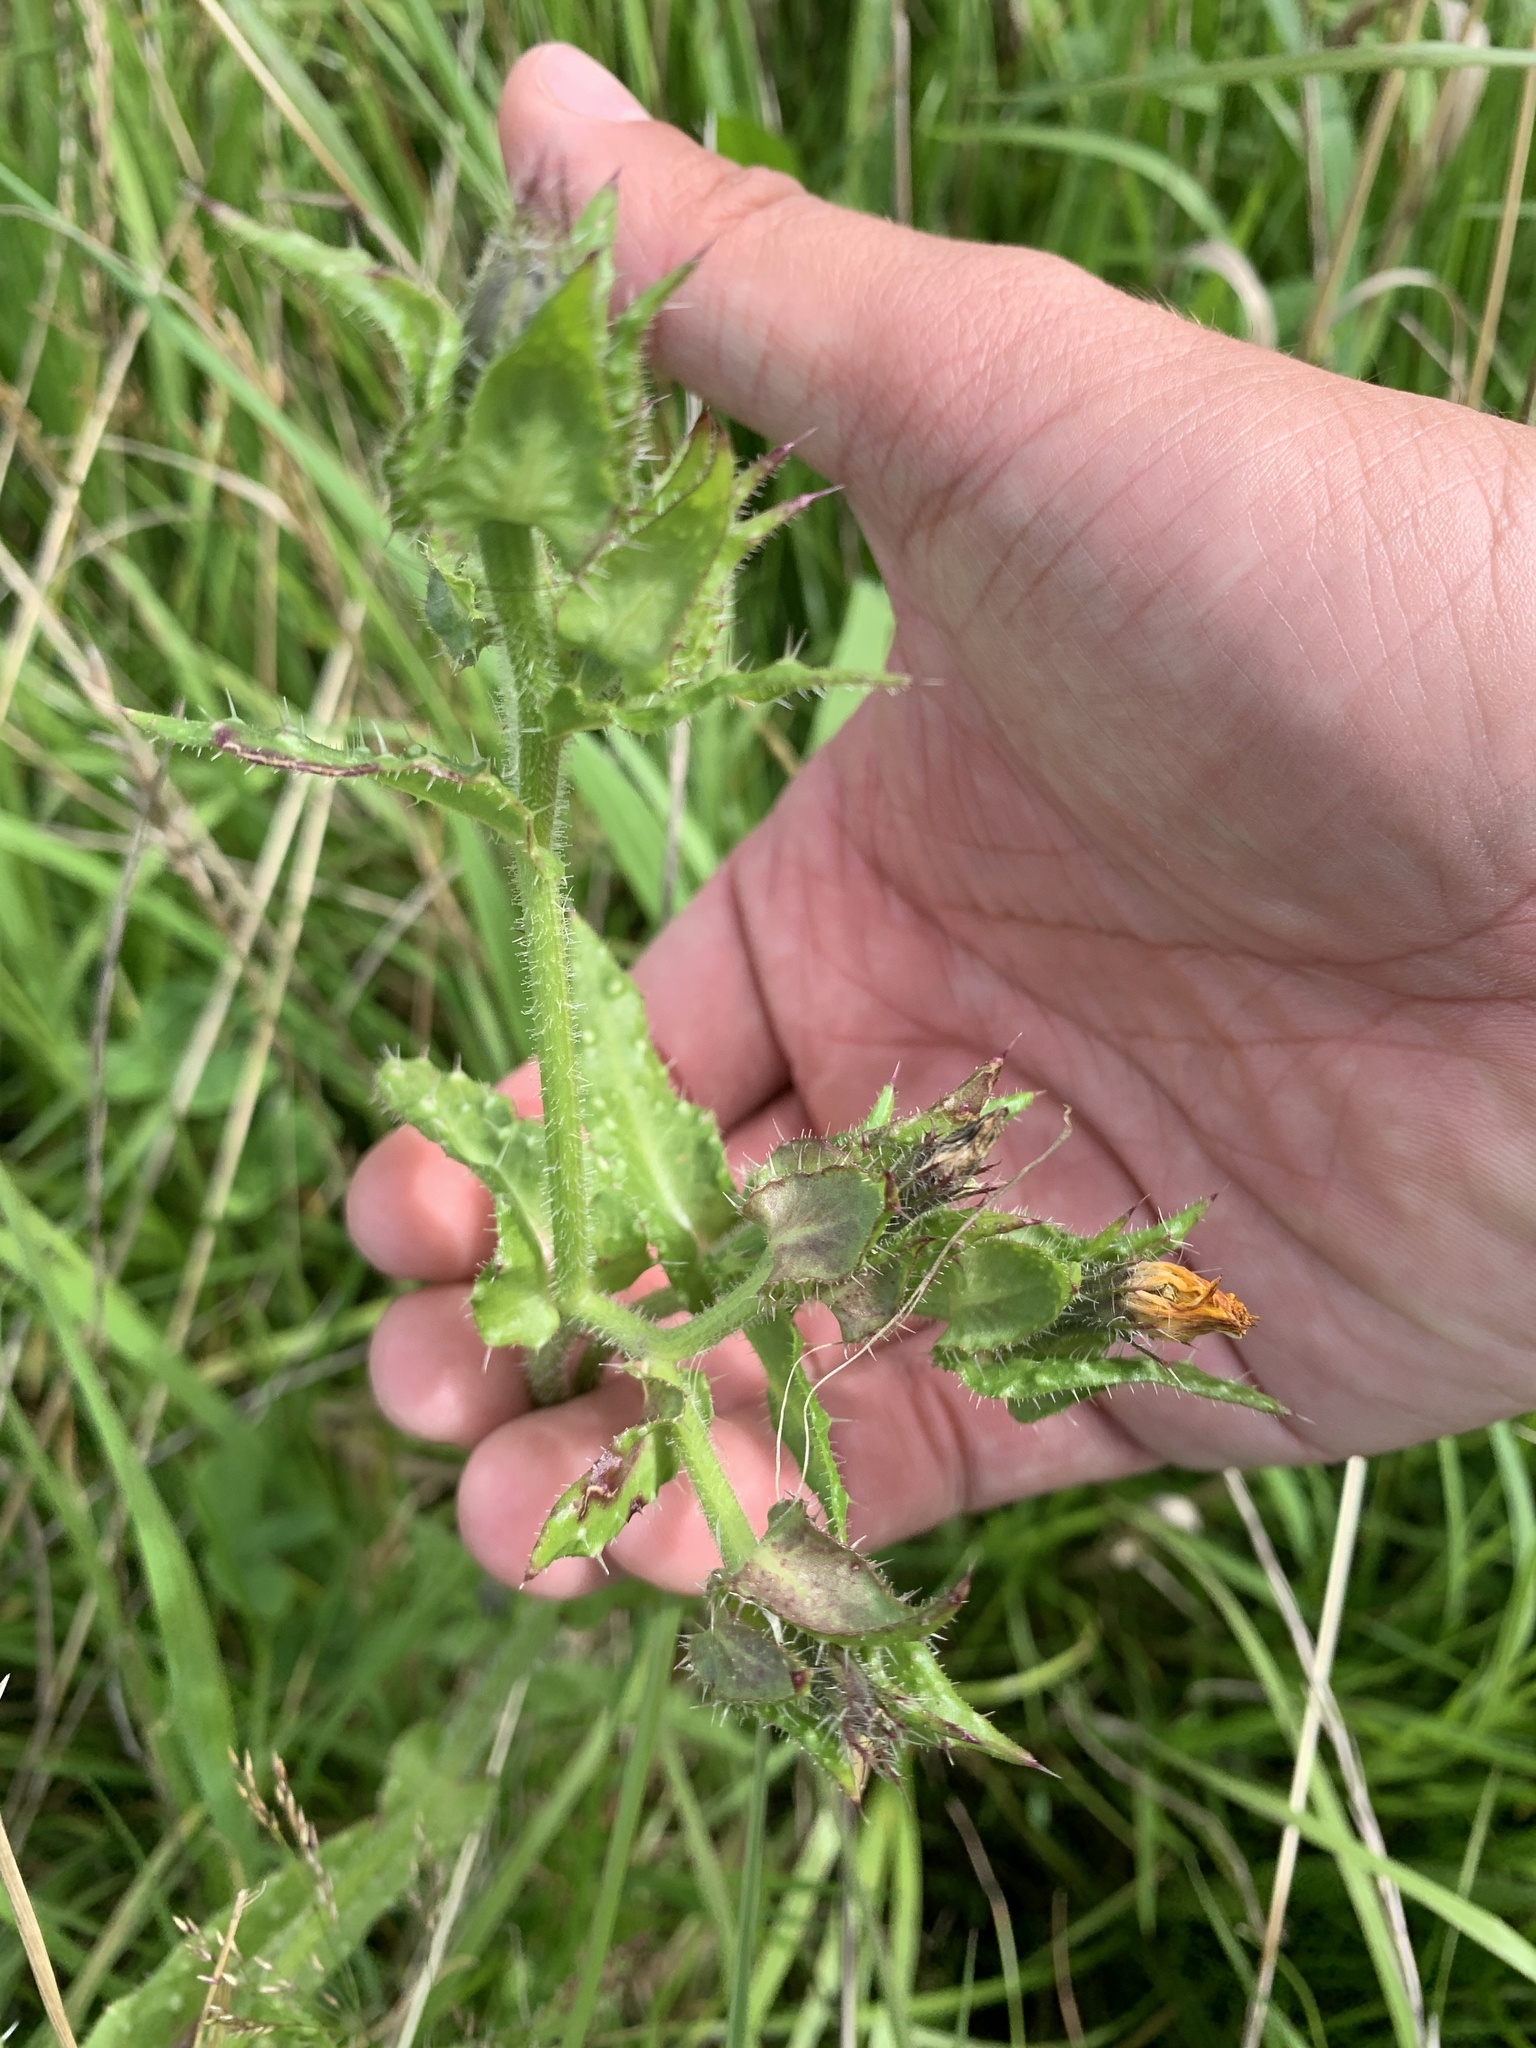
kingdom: Plantae
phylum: Tracheophyta
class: Magnoliopsida
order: Asterales
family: Asteraceae
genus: Helminthotheca
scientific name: Helminthotheca echioides
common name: Ox-tongue
